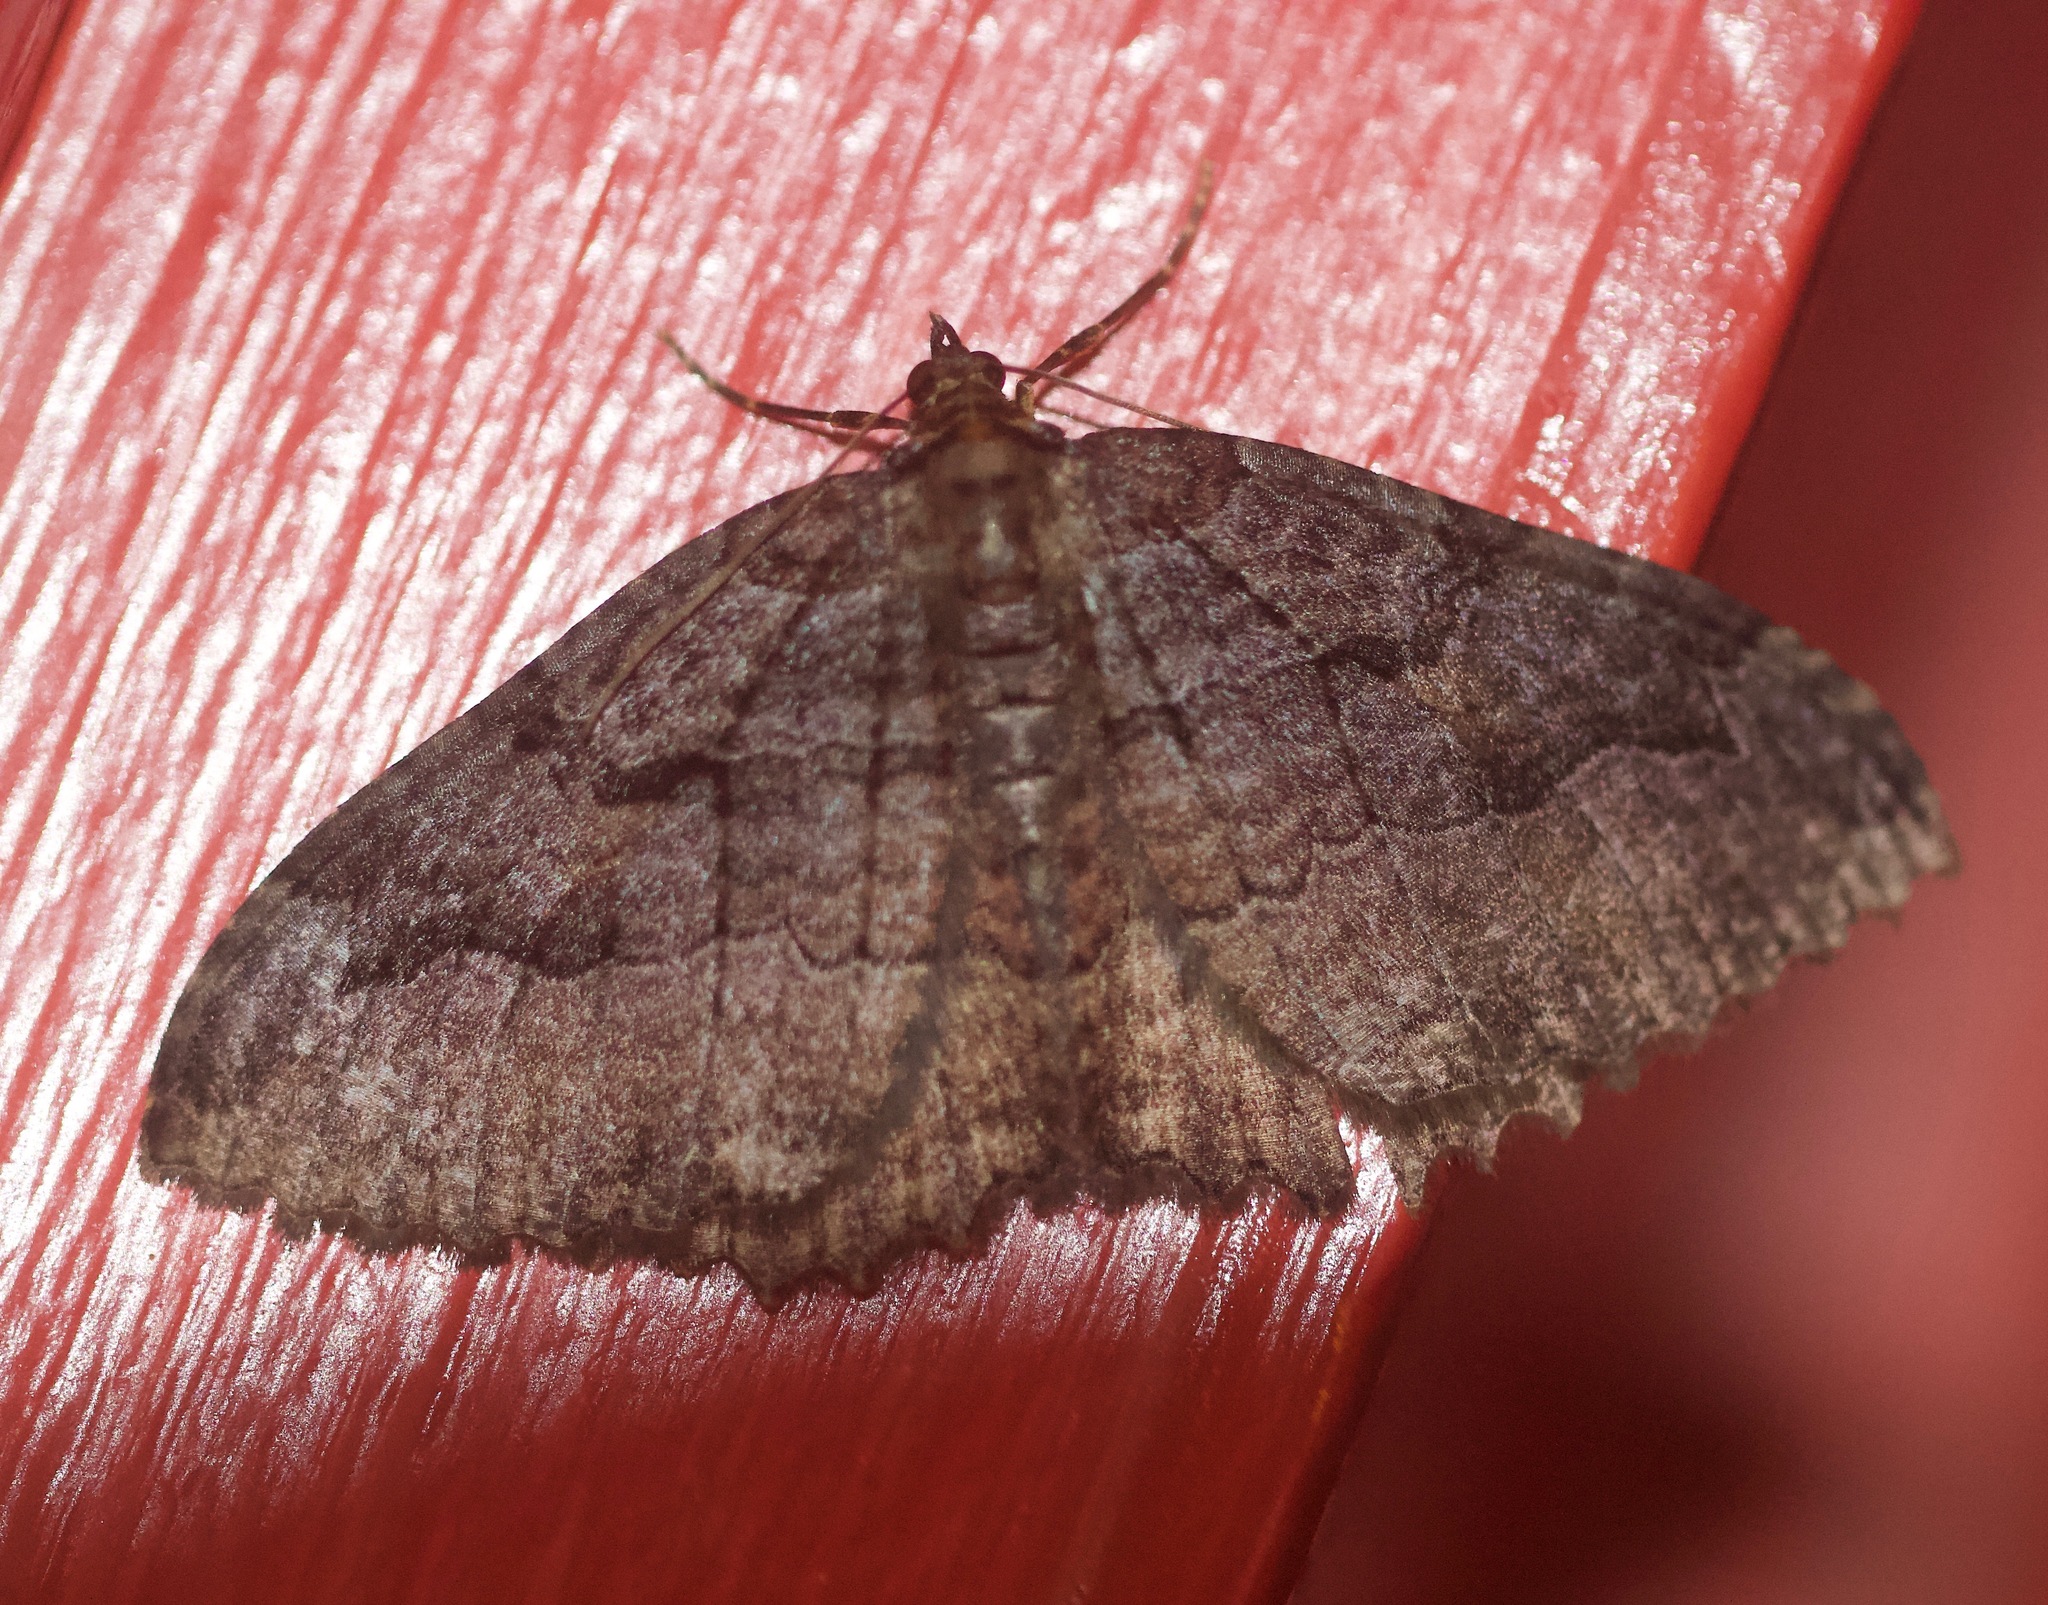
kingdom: Animalia
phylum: Arthropoda
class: Insecta
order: Lepidoptera
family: Geometridae
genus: Triphosa
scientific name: Triphosa haesitata
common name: Tissue moth
